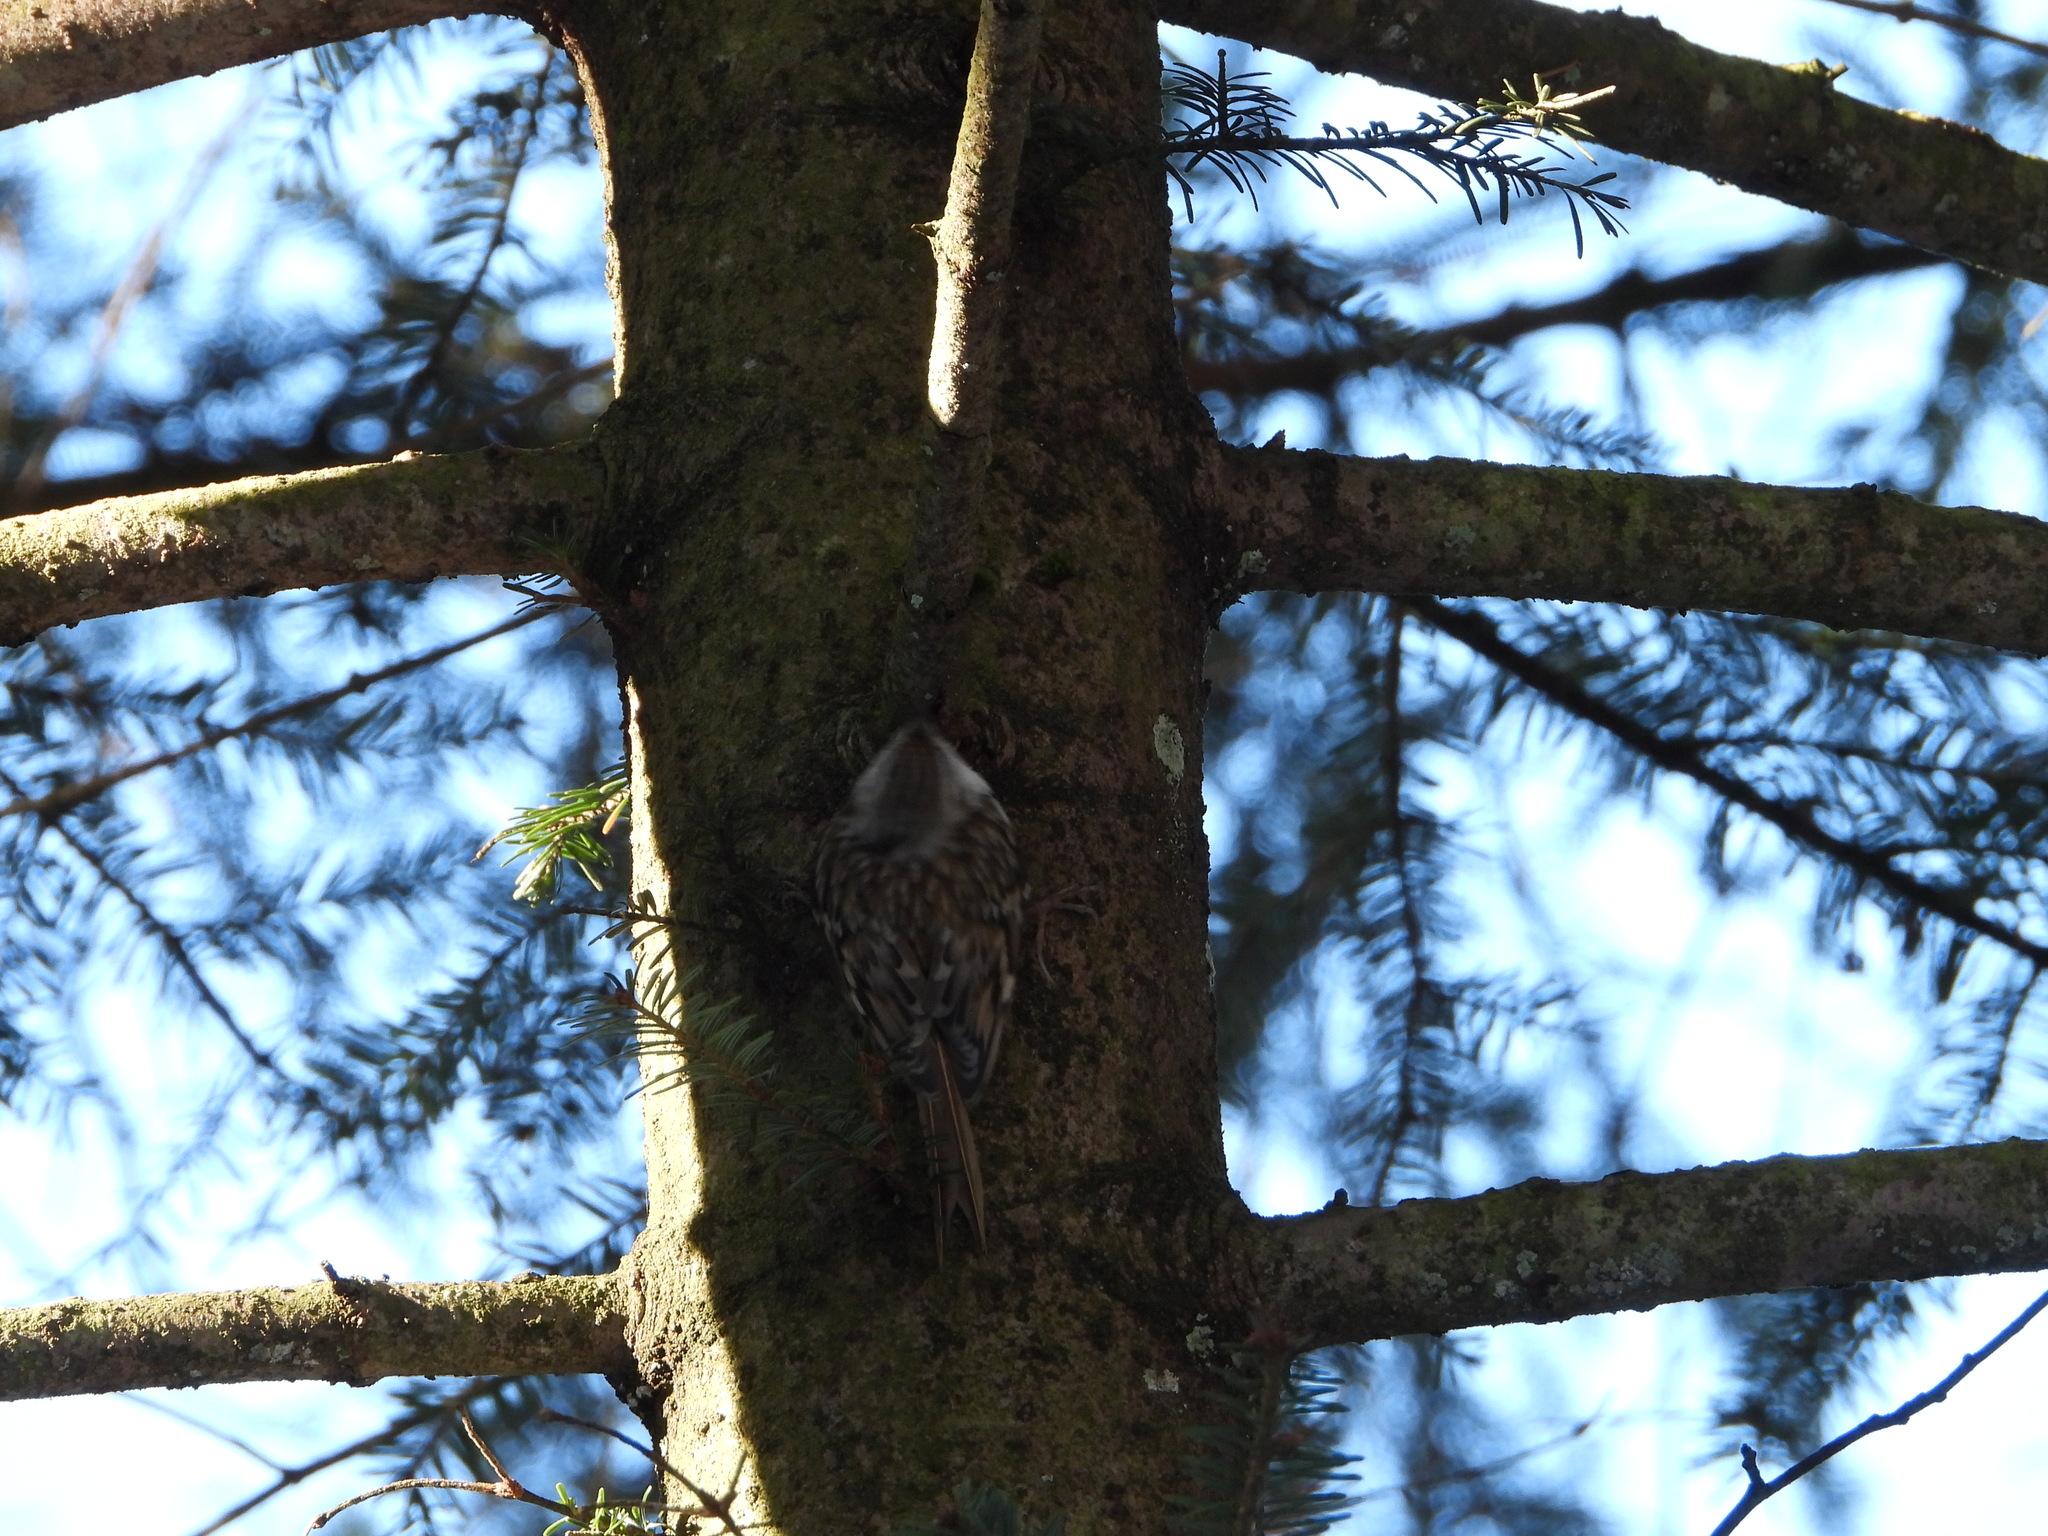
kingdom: Animalia
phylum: Chordata
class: Aves
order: Passeriformes
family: Certhiidae
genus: Certhia
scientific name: Certhia familiaris
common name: Eurasian treecreeper
